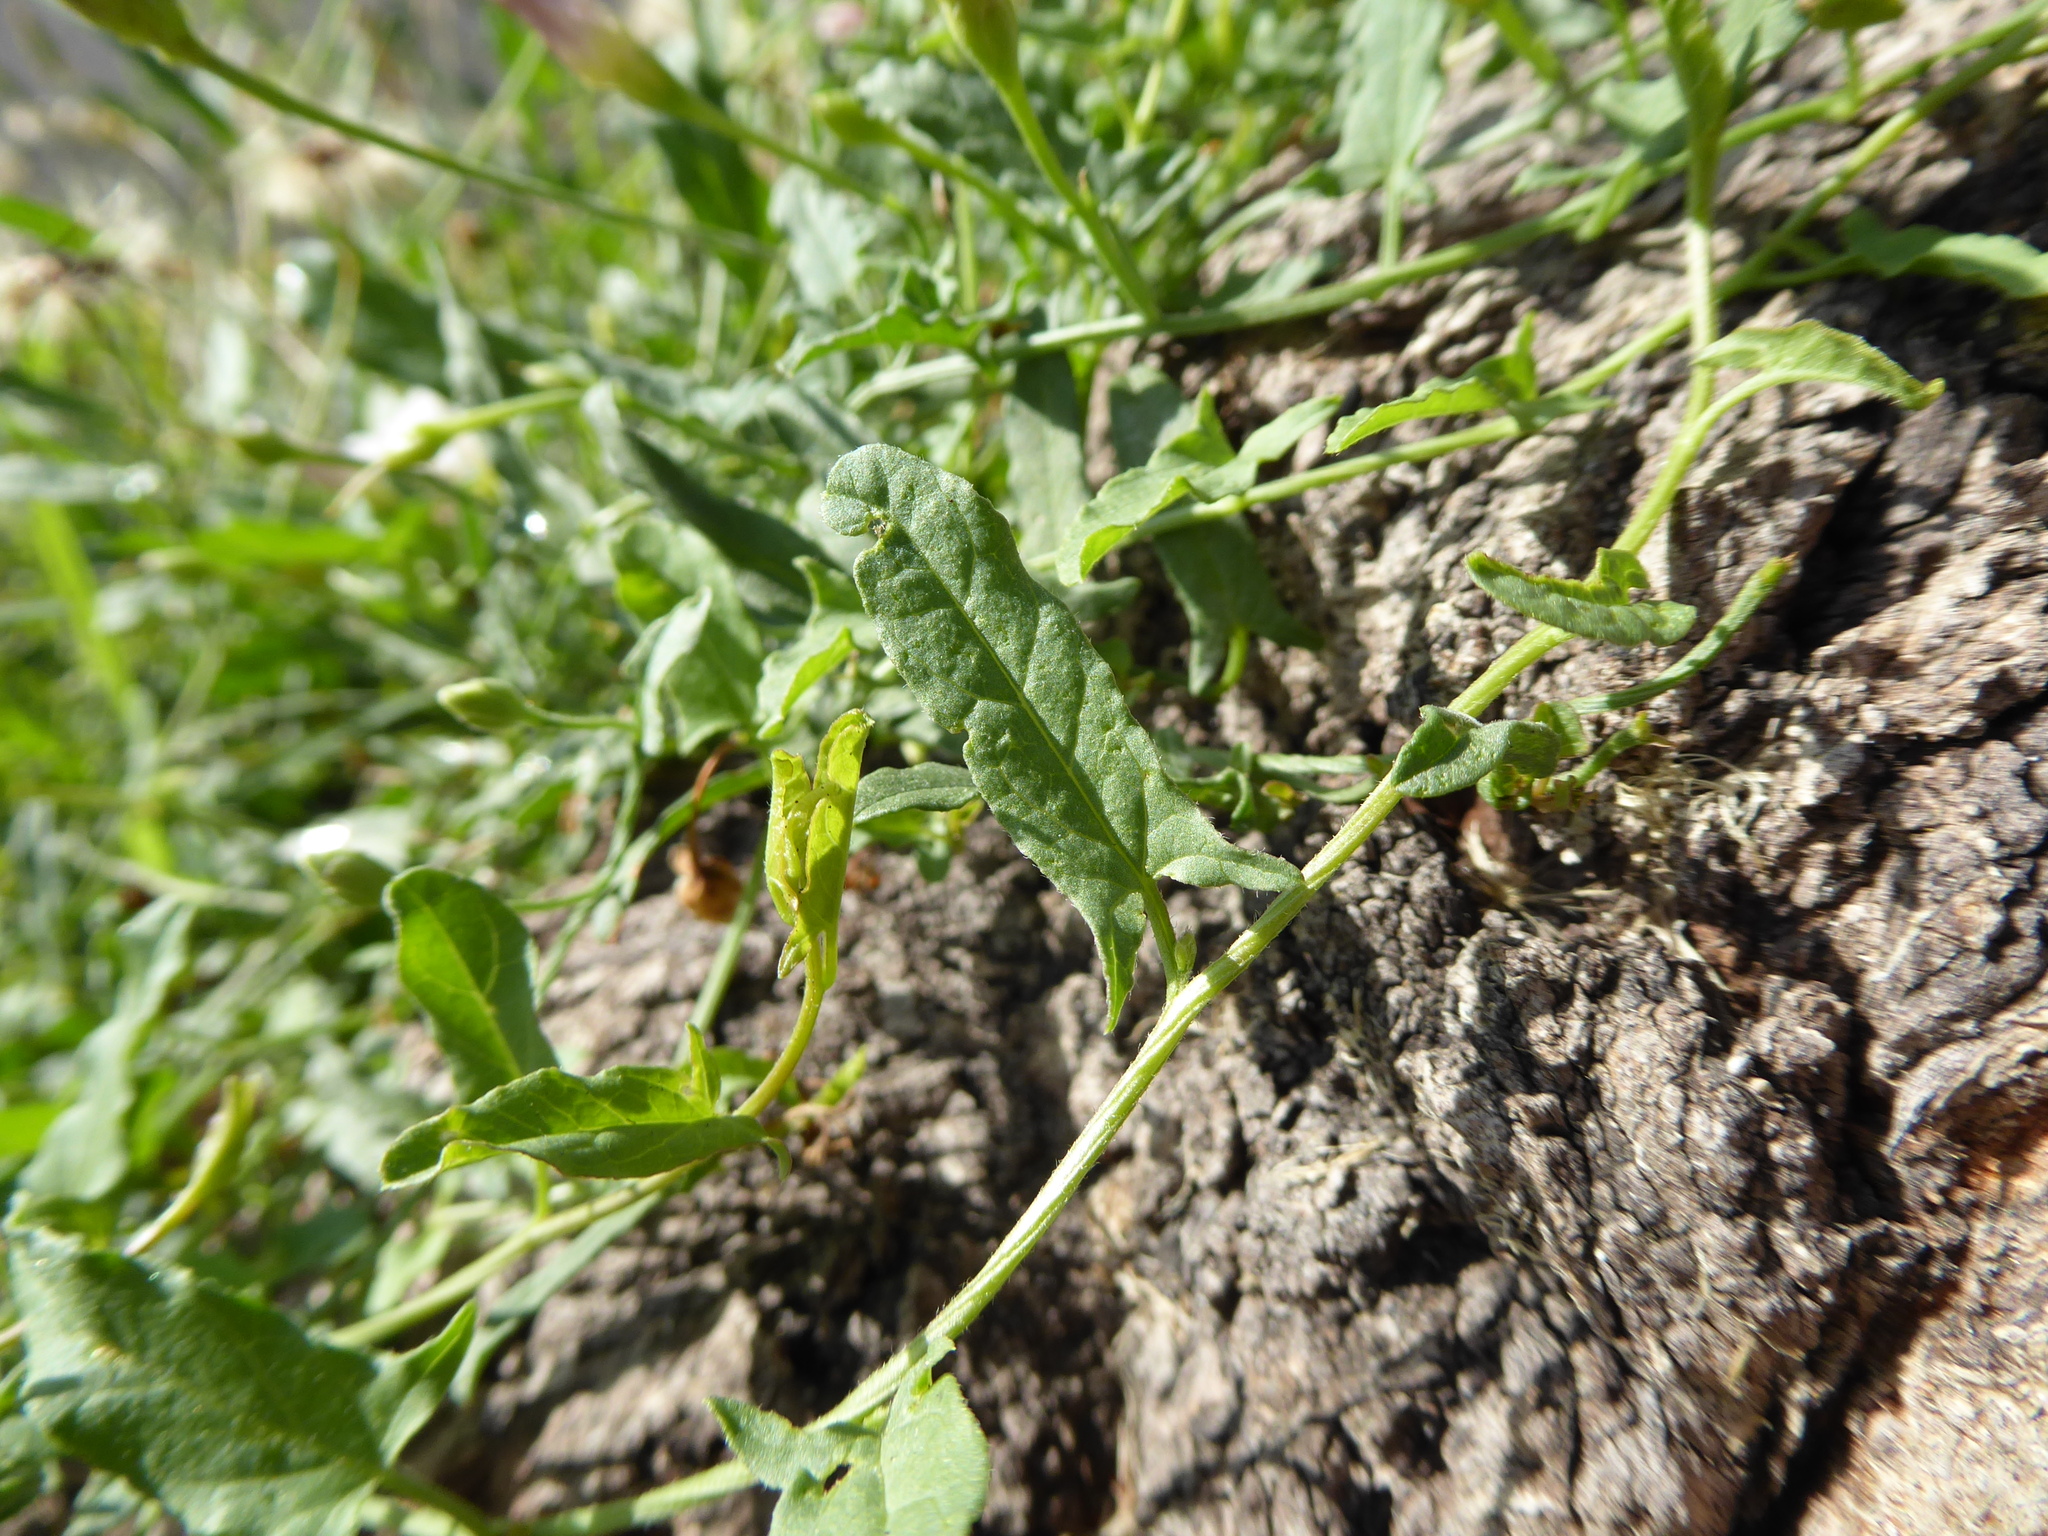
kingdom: Plantae
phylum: Tracheophyta
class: Magnoliopsida
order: Solanales
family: Convolvulaceae
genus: Convolvulus
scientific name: Convolvulus arvensis
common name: Field bindweed
